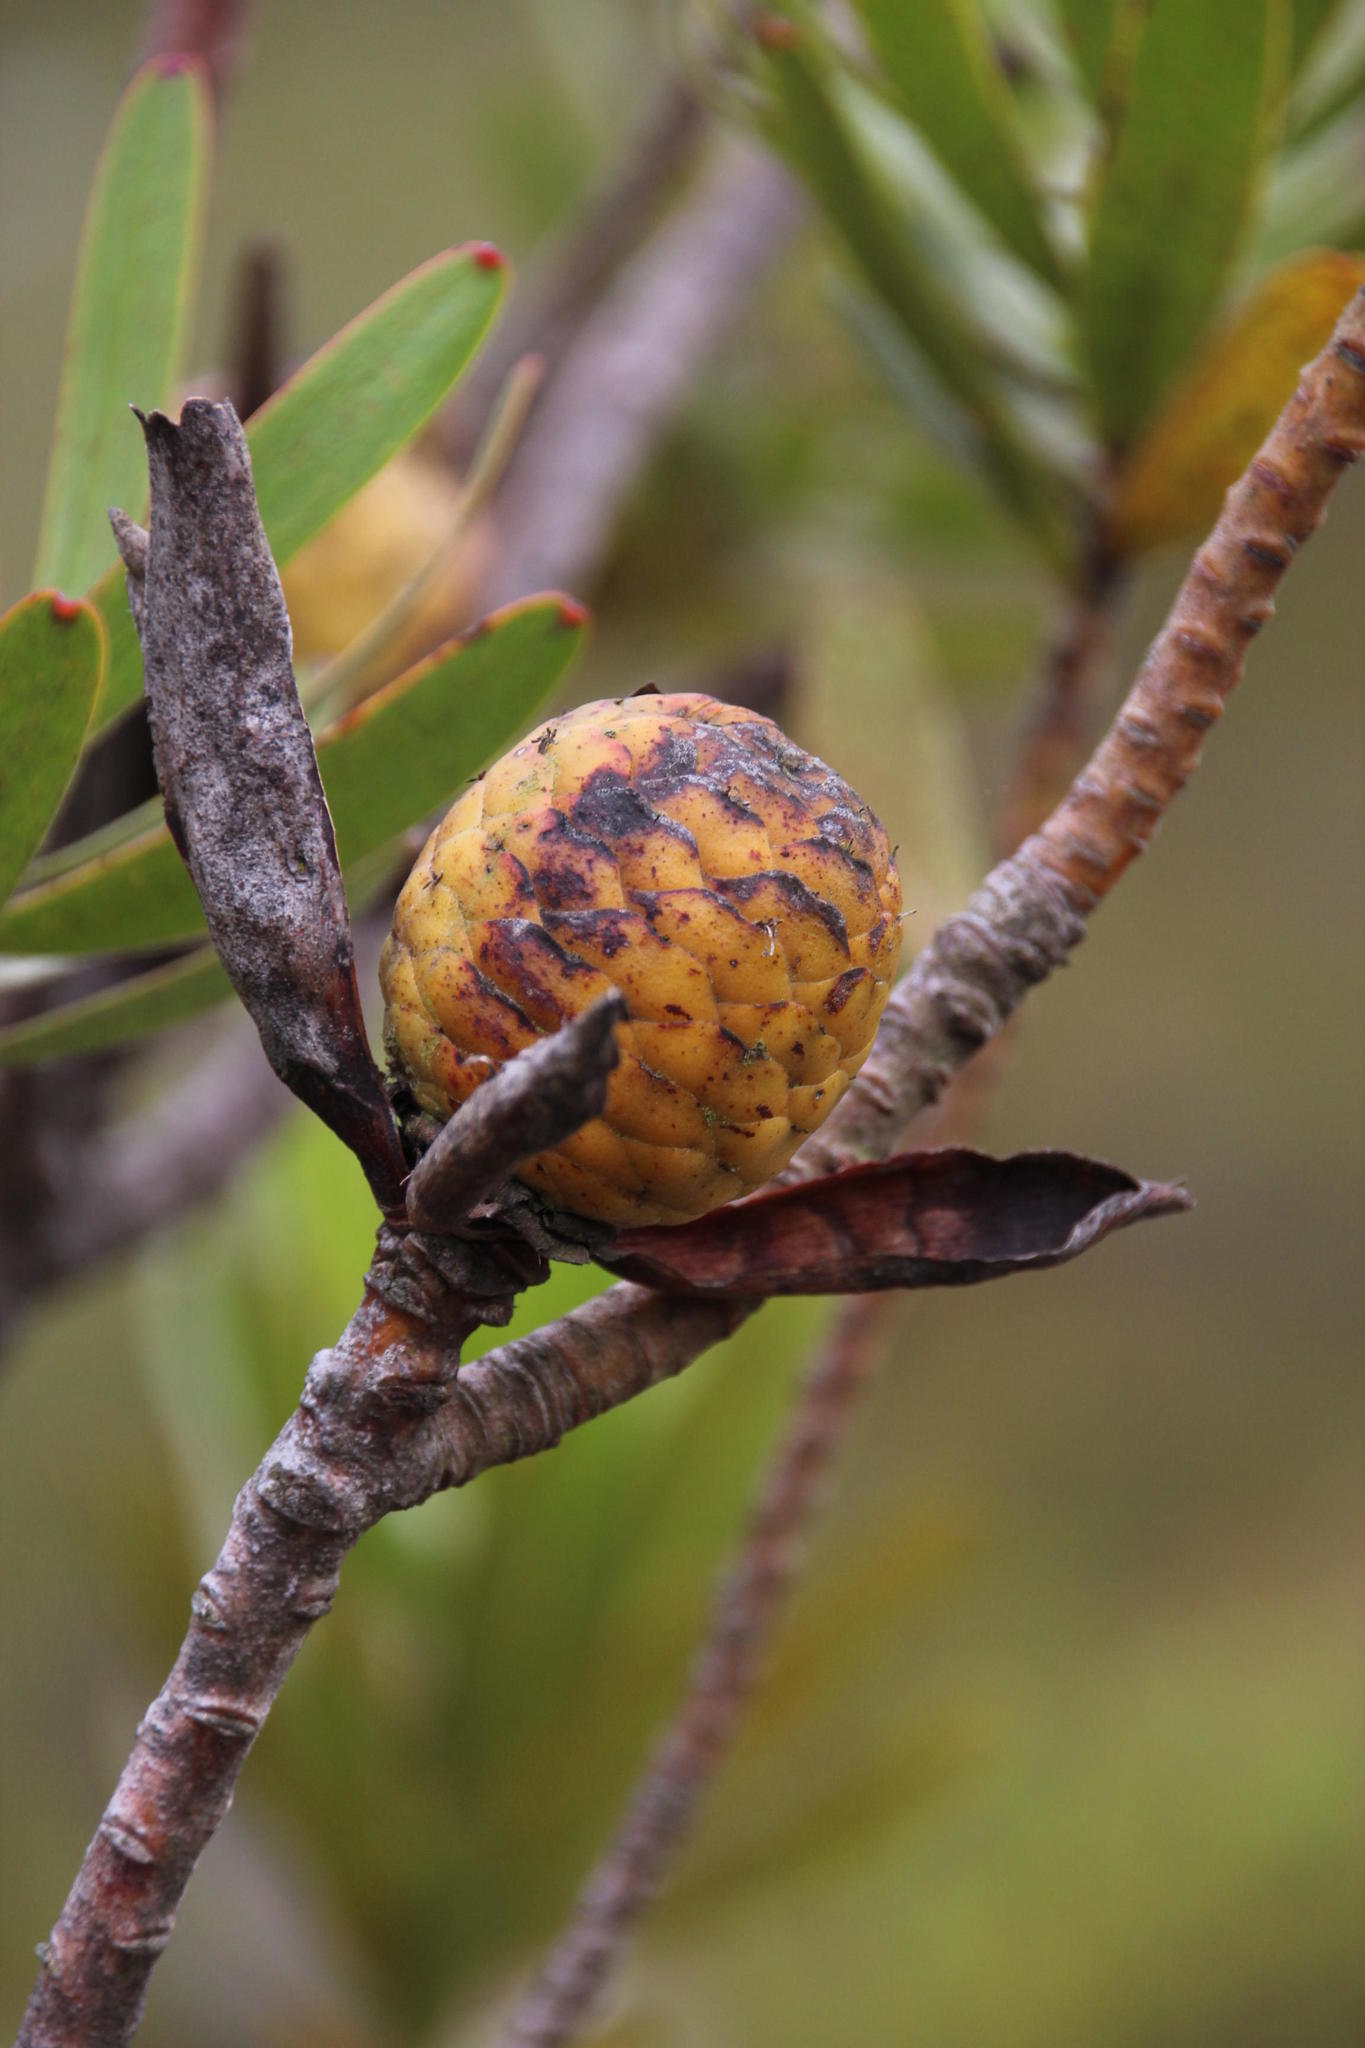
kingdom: Plantae
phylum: Tracheophyta
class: Magnoliopsida
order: Proteales
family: Proteaceae
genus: Leucadendron
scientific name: Leucadendron laureolum
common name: Golden sunshinebush
